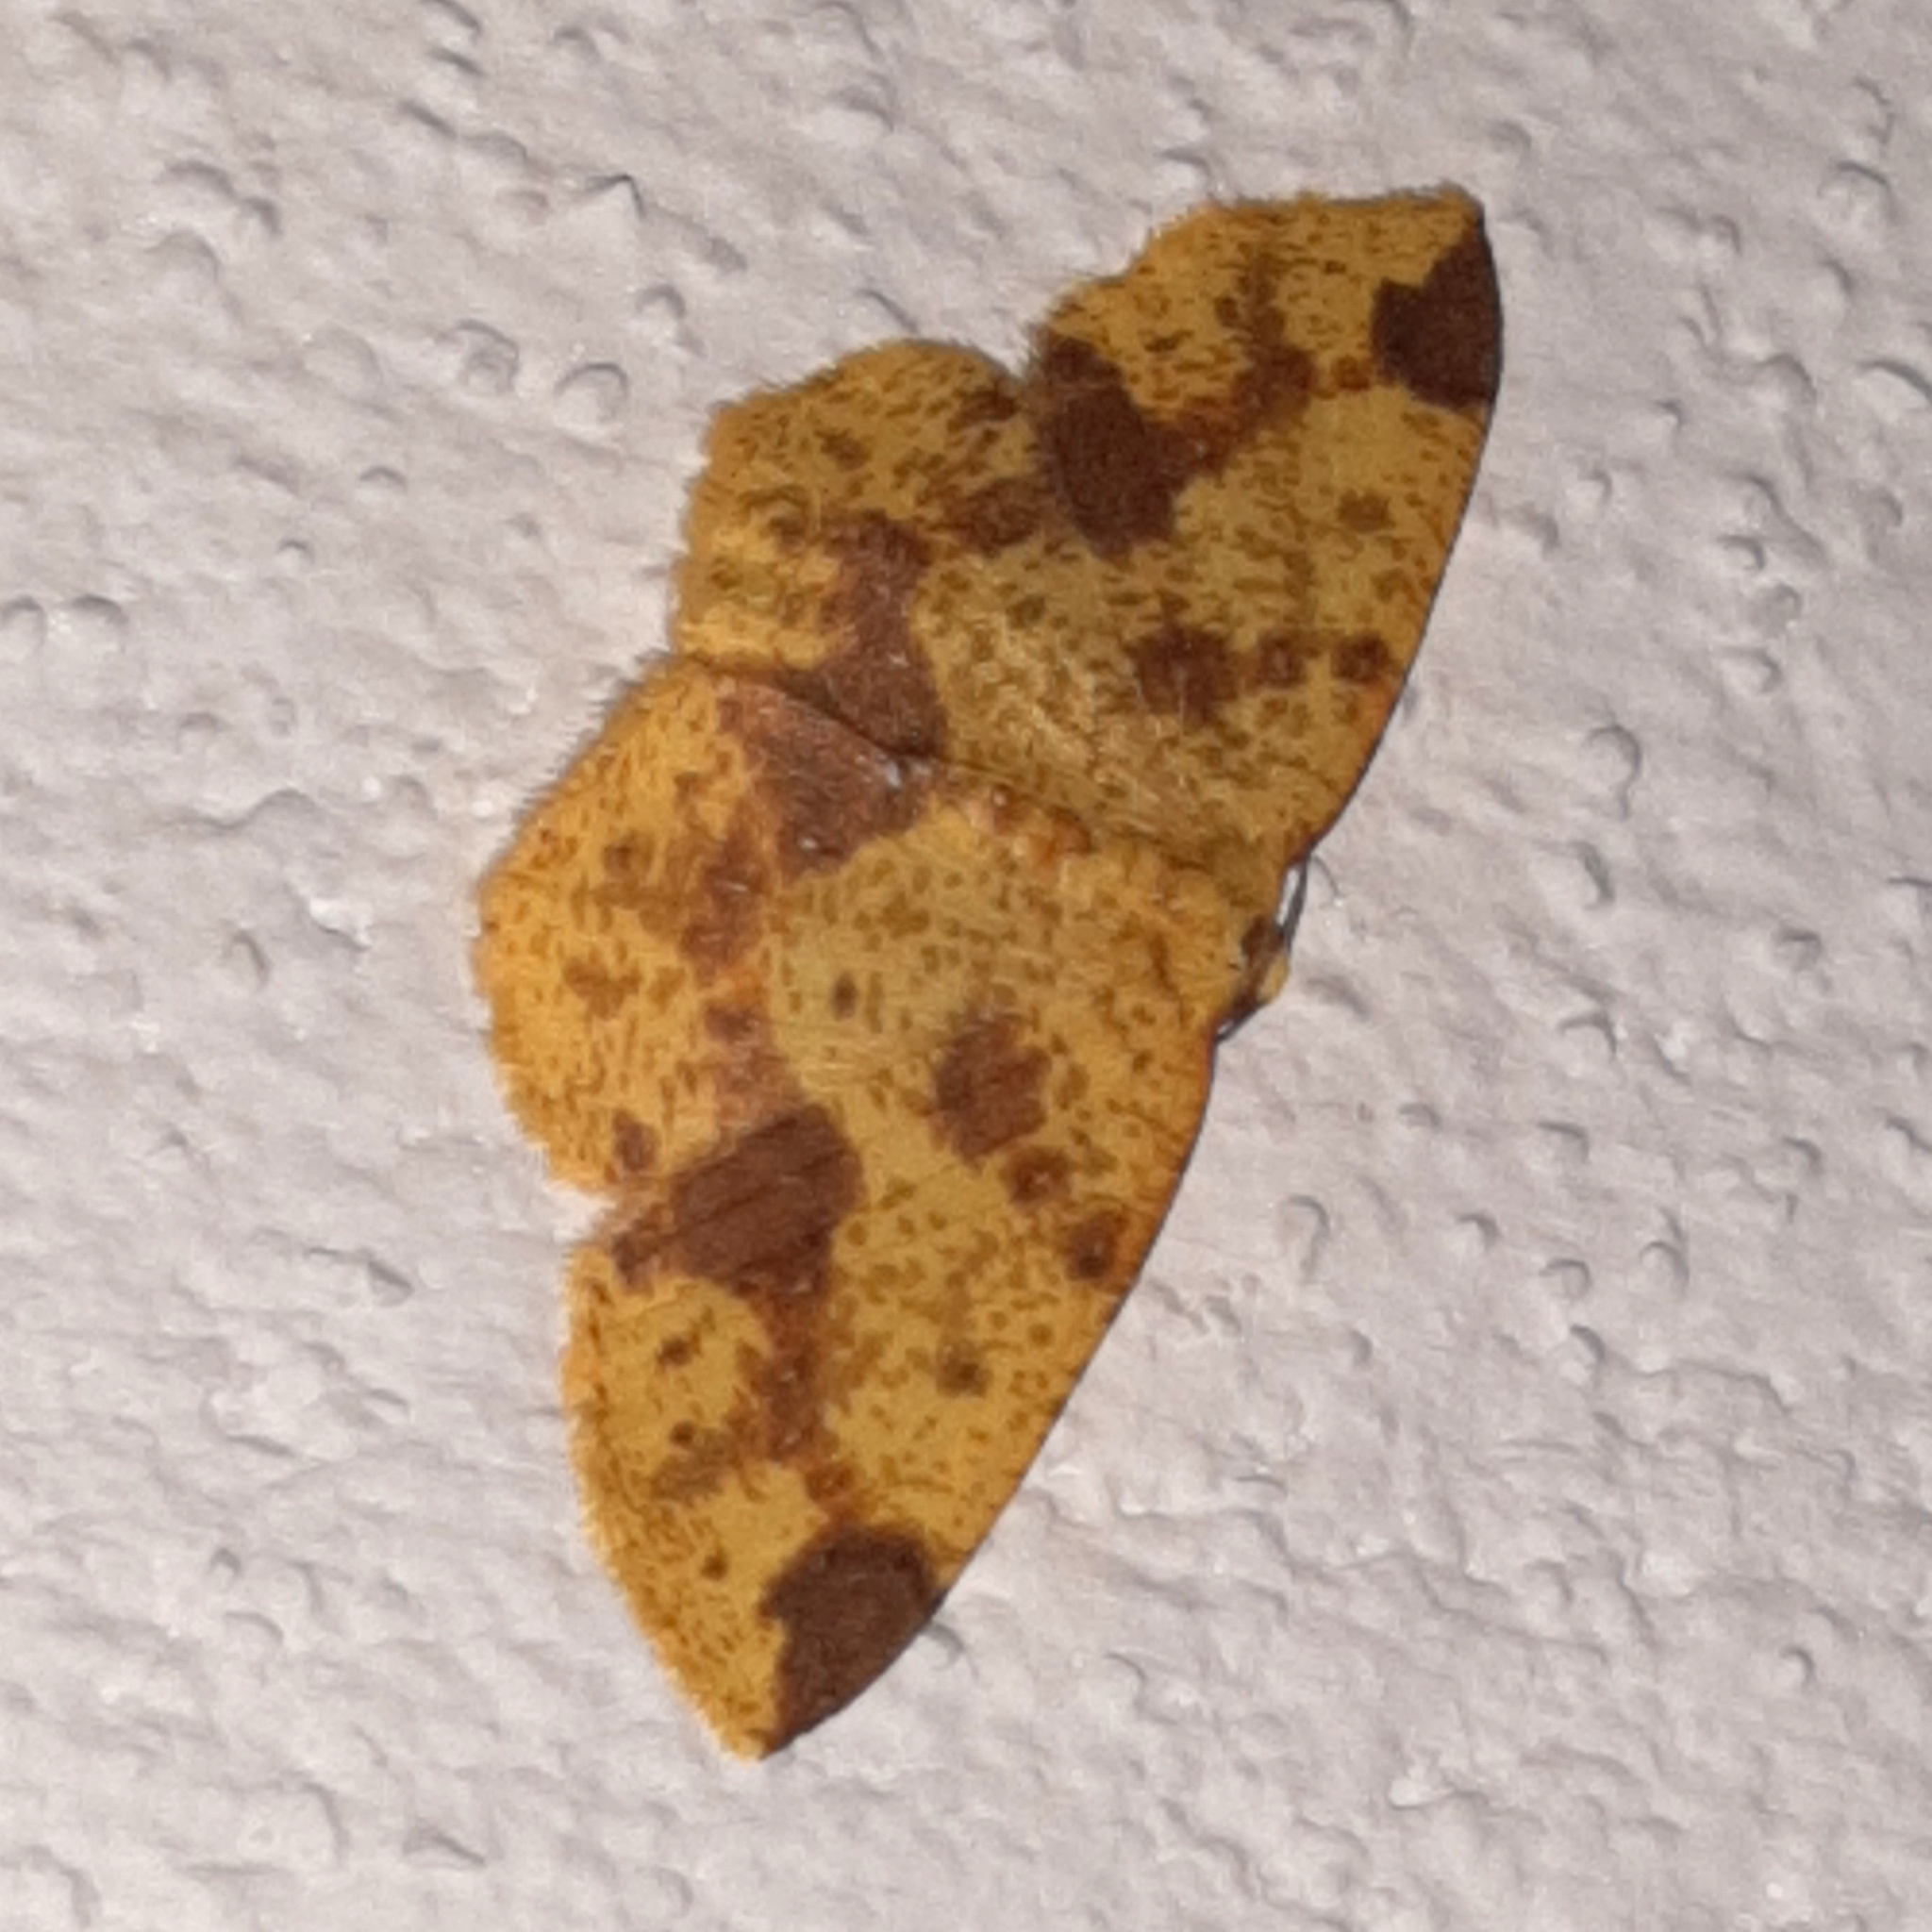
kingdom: Animalia
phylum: Arthropoda
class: Insecta
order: Lepidoptera
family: Geometridae
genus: Periclina
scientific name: Periclina apricaria
